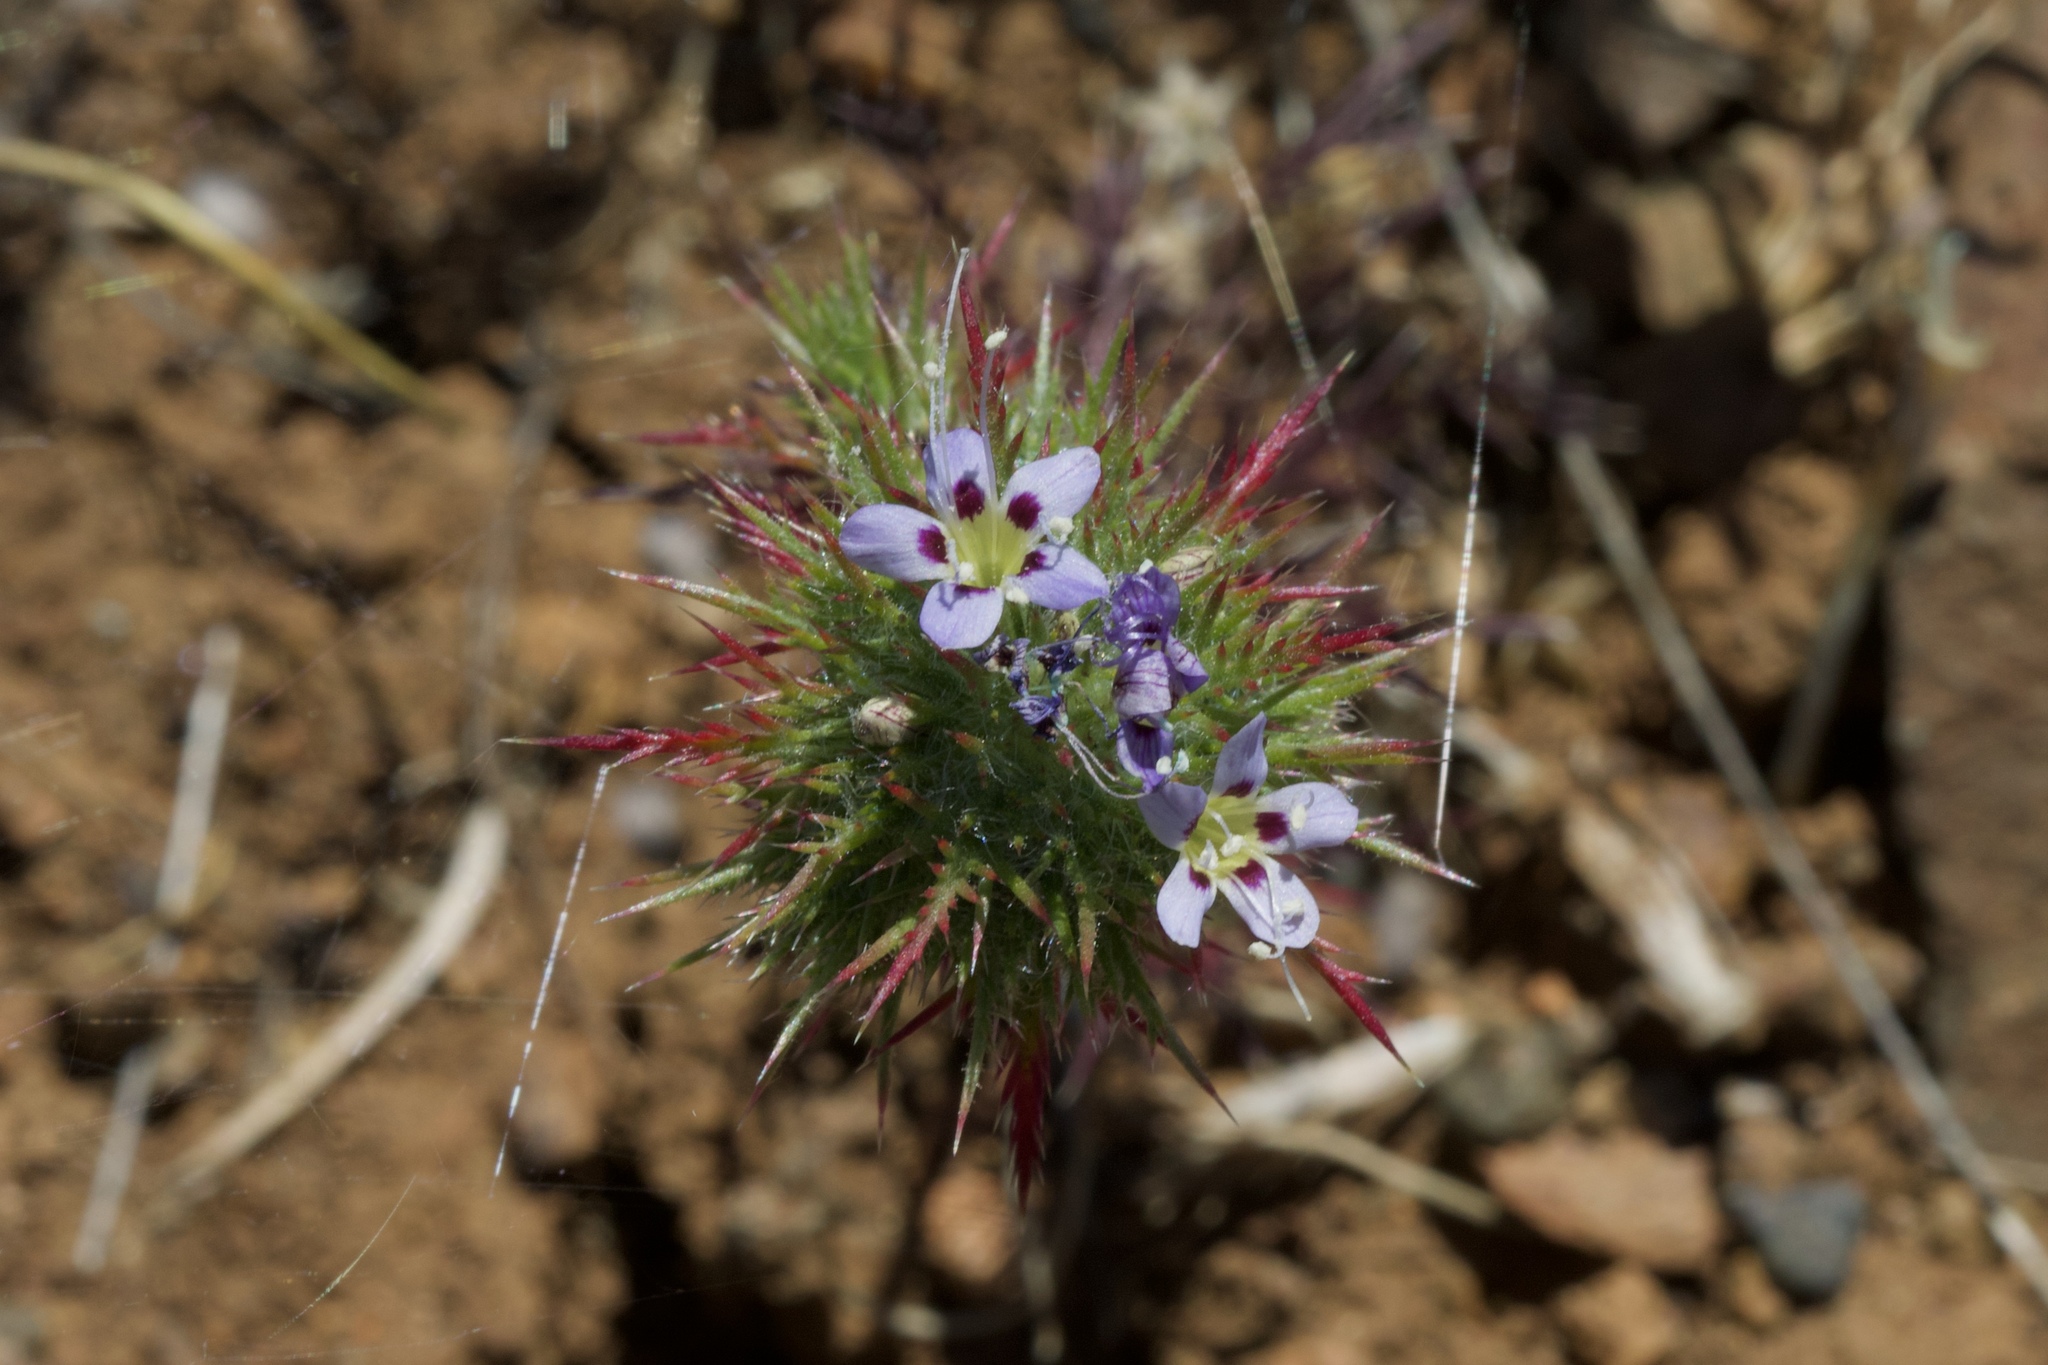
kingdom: Plantae
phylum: Tracheophyta
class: Magnoliopsida
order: Ericales
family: Polemoniaceae
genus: Navarretia
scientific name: Navarretia jepsonii
